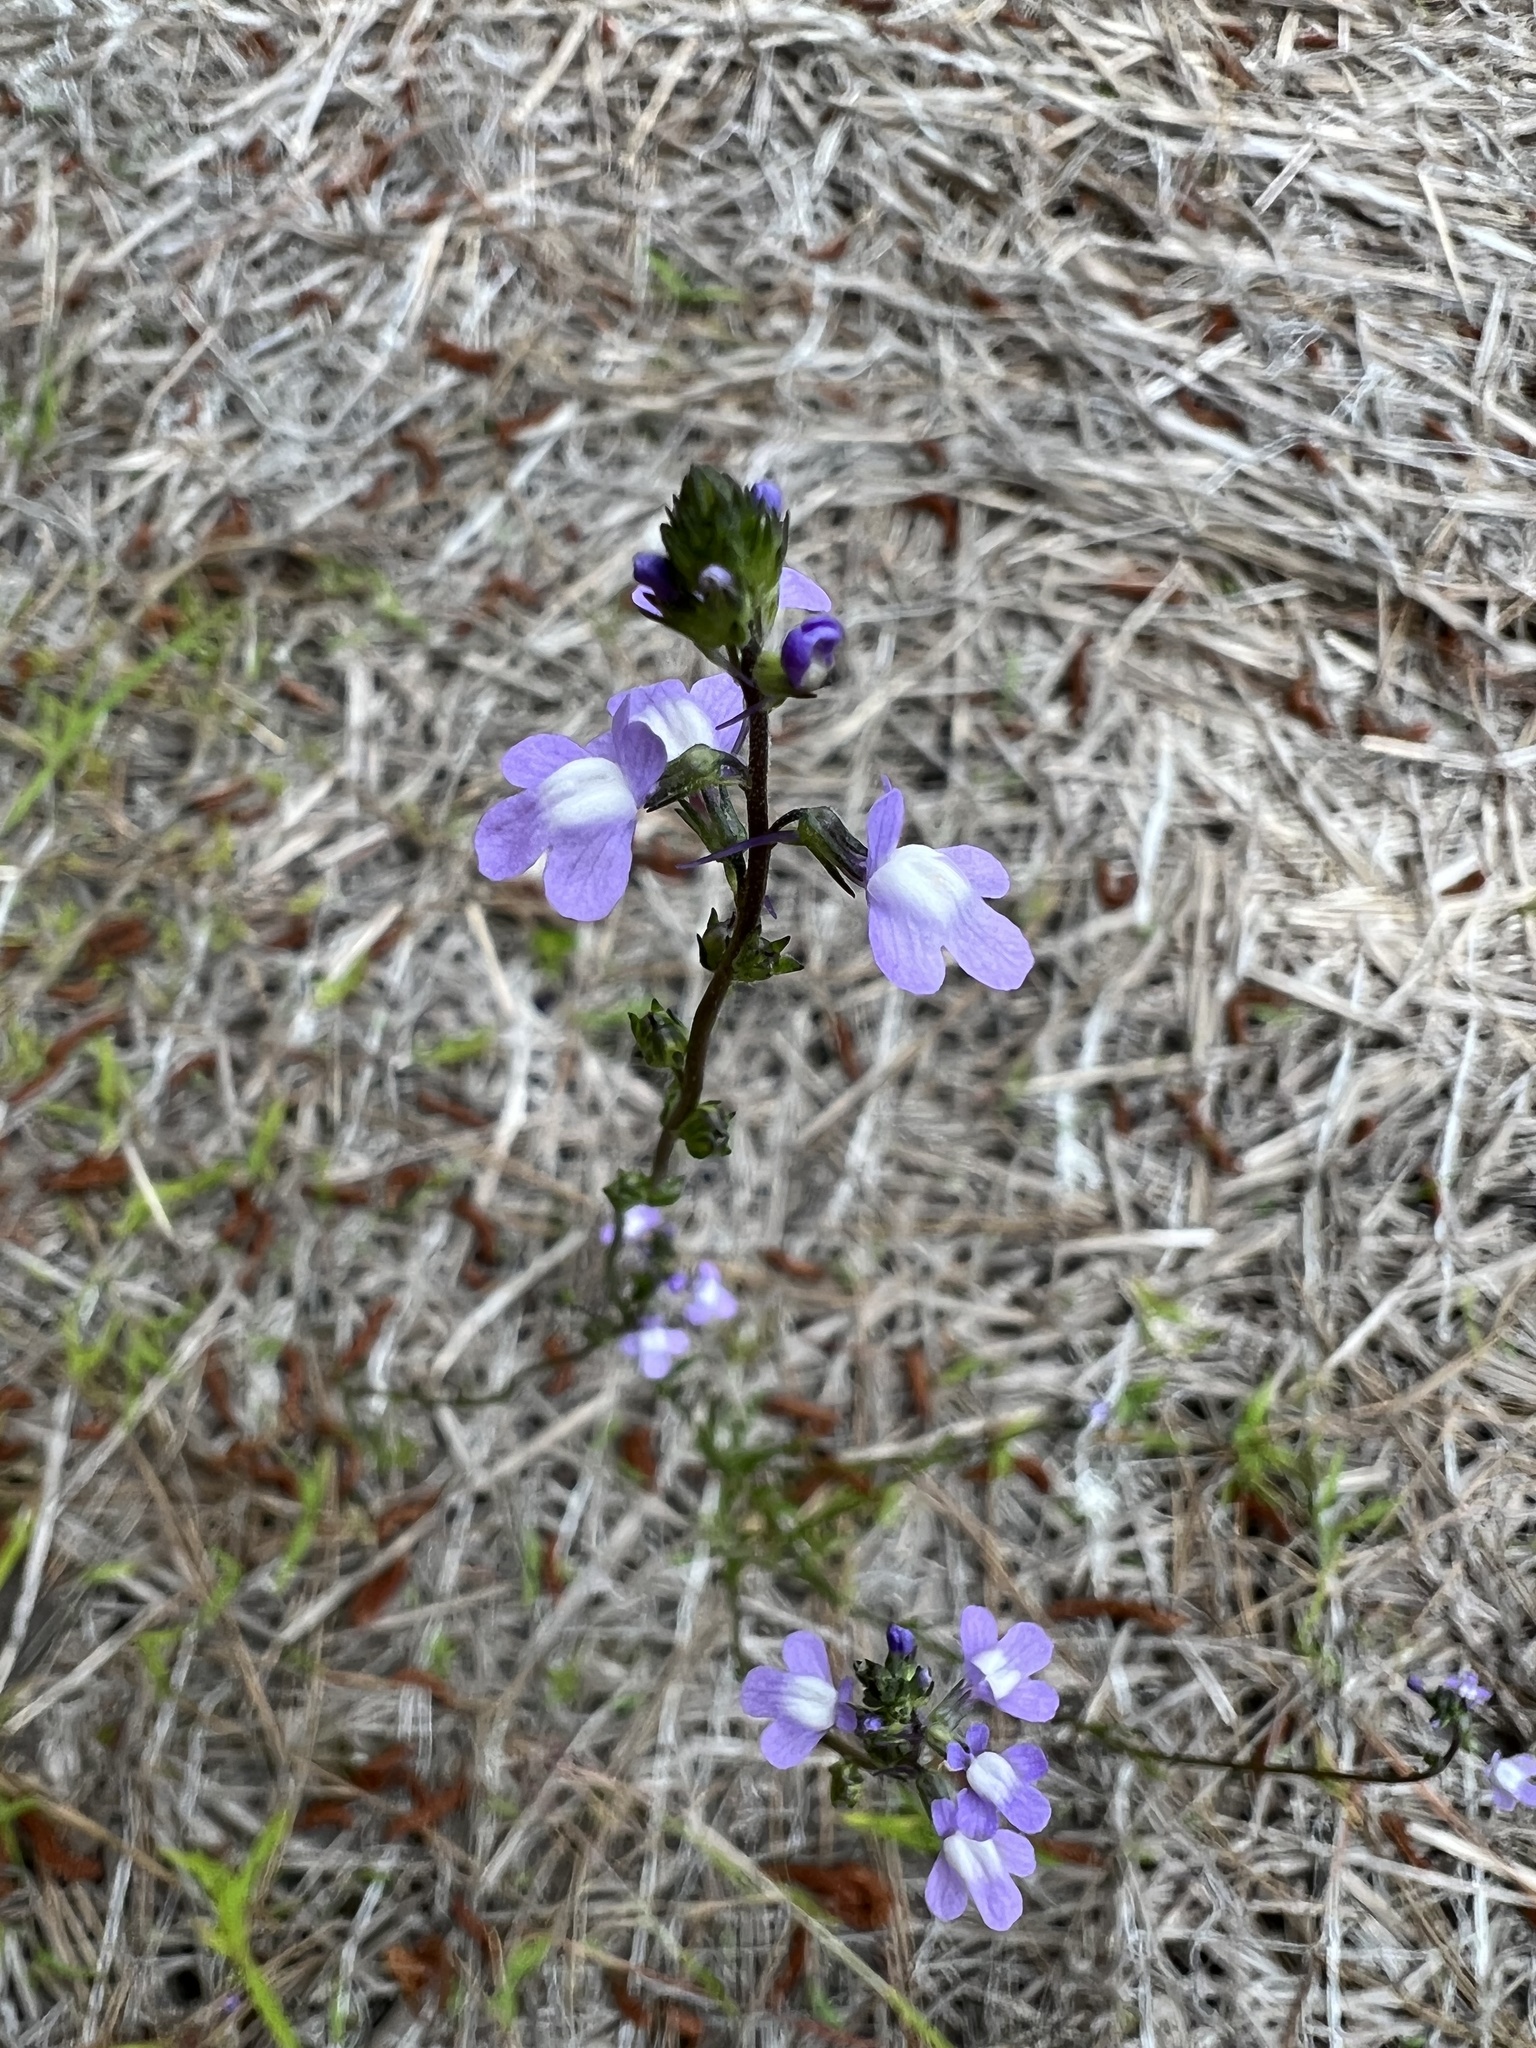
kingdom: Plantae
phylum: Tracheophyta
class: Magnoliopsida
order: Lamiales
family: Plantaginaceae
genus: Nuttallanthus
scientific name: Nuttallanthus canadensis
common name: Blue toadflax
